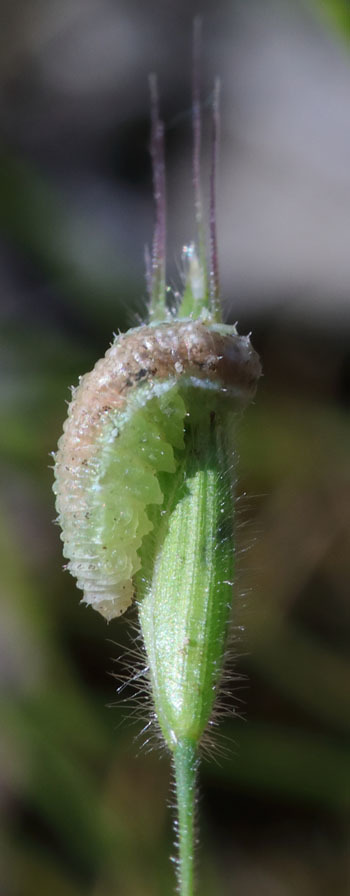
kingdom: Animalia
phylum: Arthropoda
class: Insecta
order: Diptera
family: Syrphidae
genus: Eupeodes
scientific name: Eupeodes volucris
